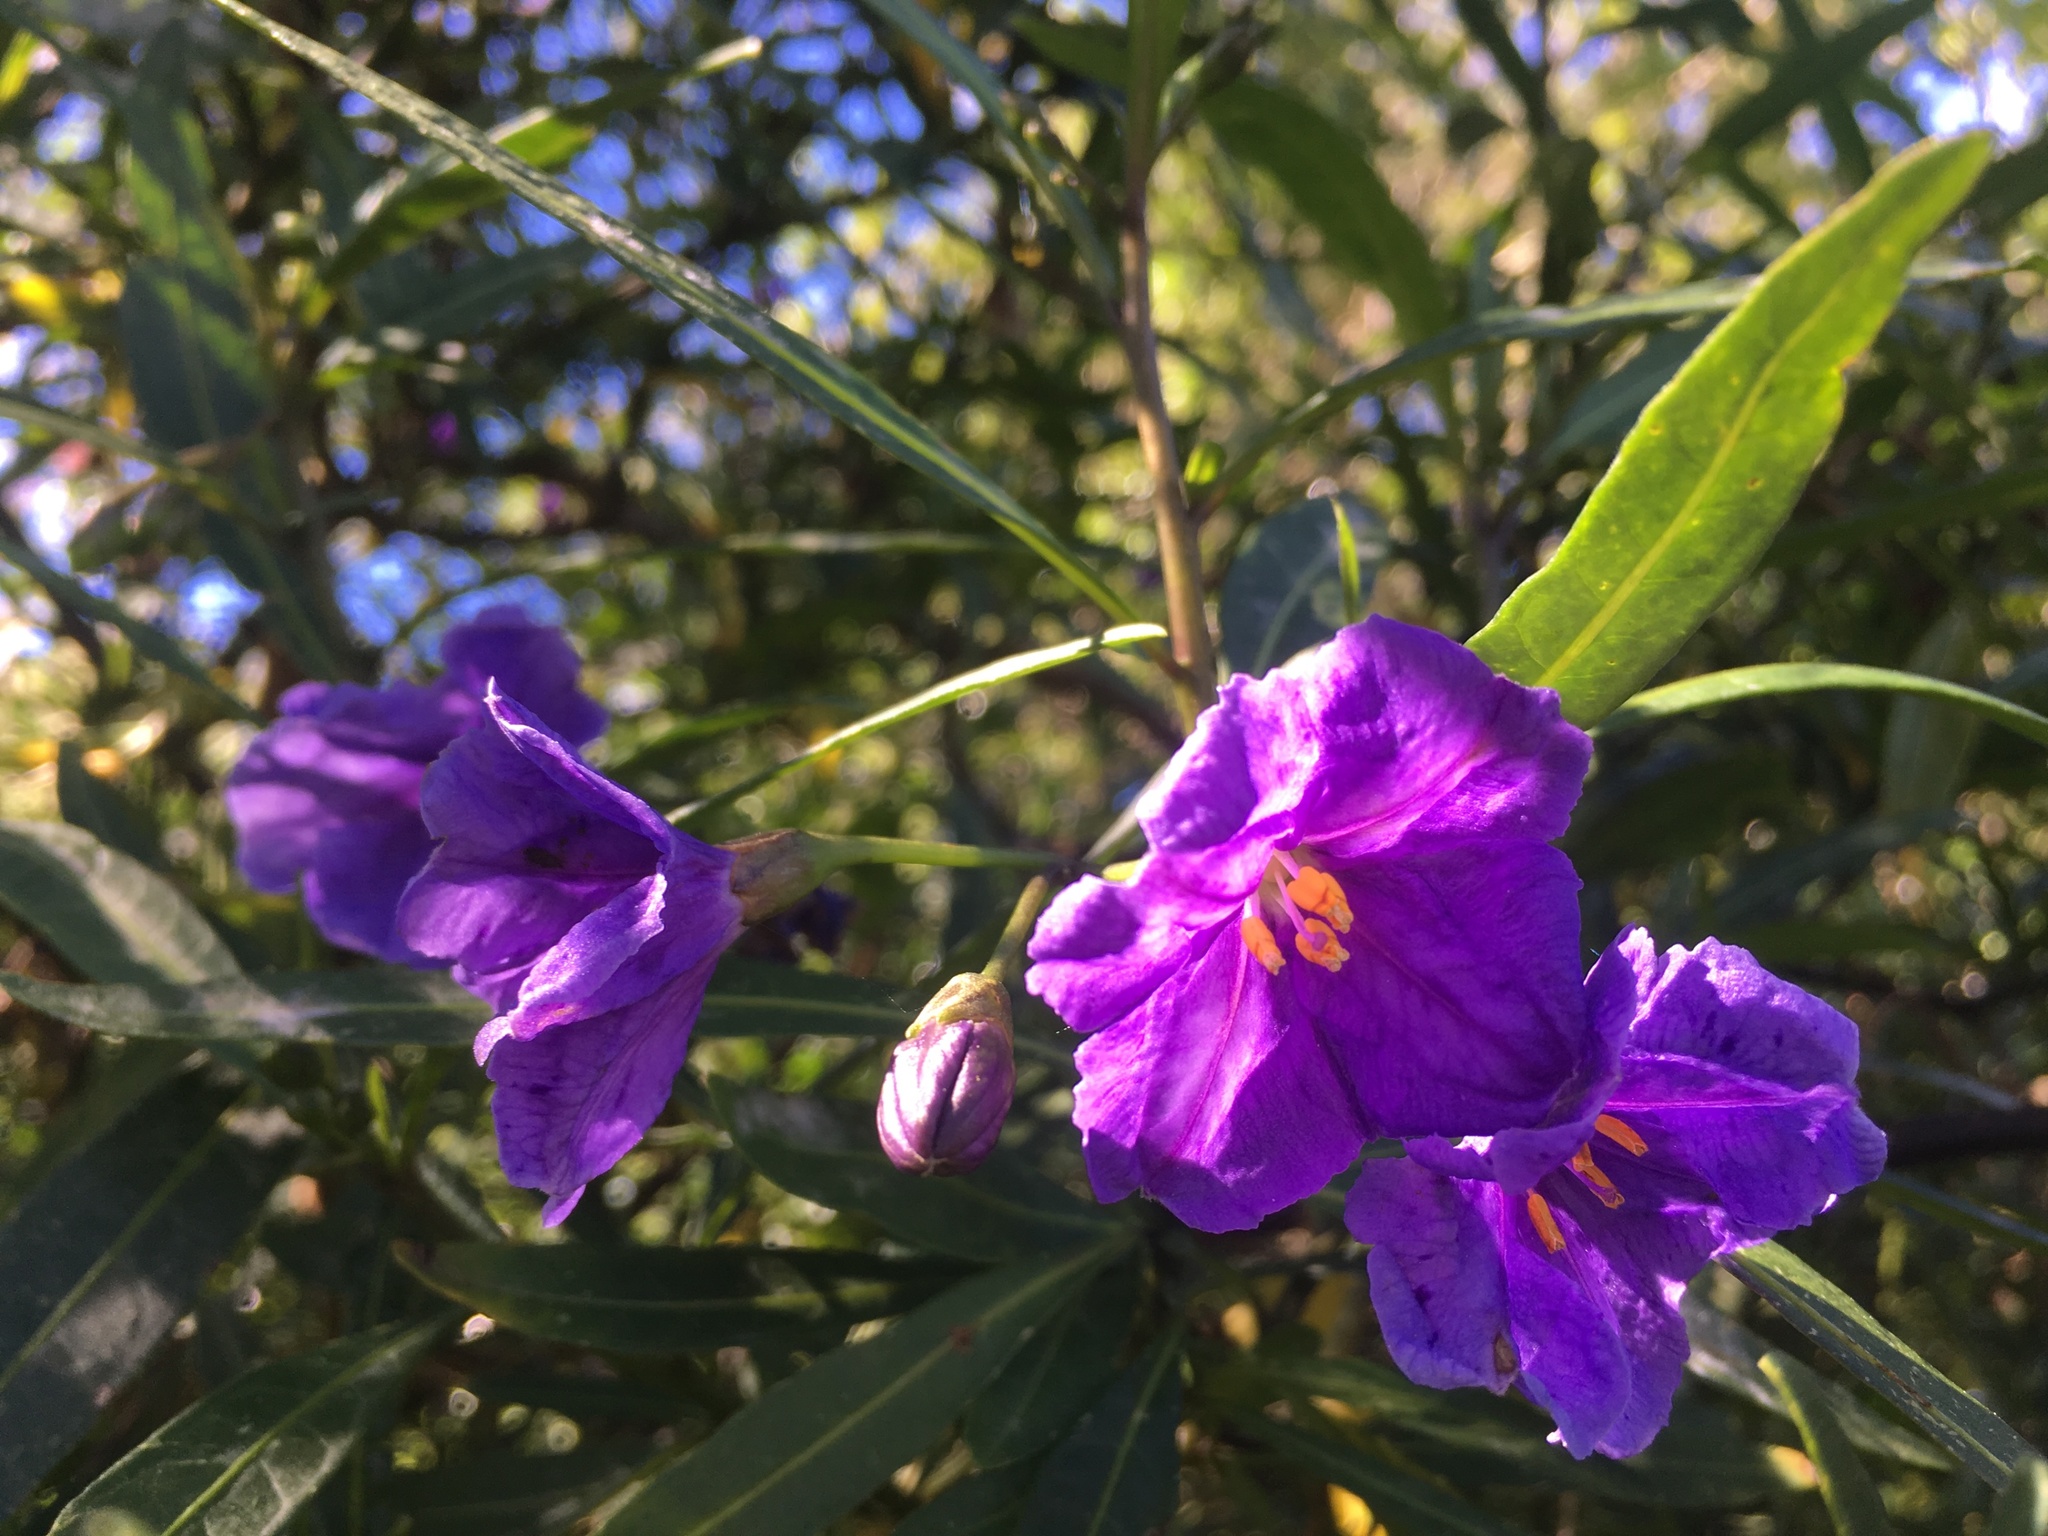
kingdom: Plantae
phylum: Tracheophyta
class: Magnoliopsida
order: Solanales
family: Solanaceae
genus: Solanum
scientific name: Solanum laciniatum
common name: Kangaroo-apple
